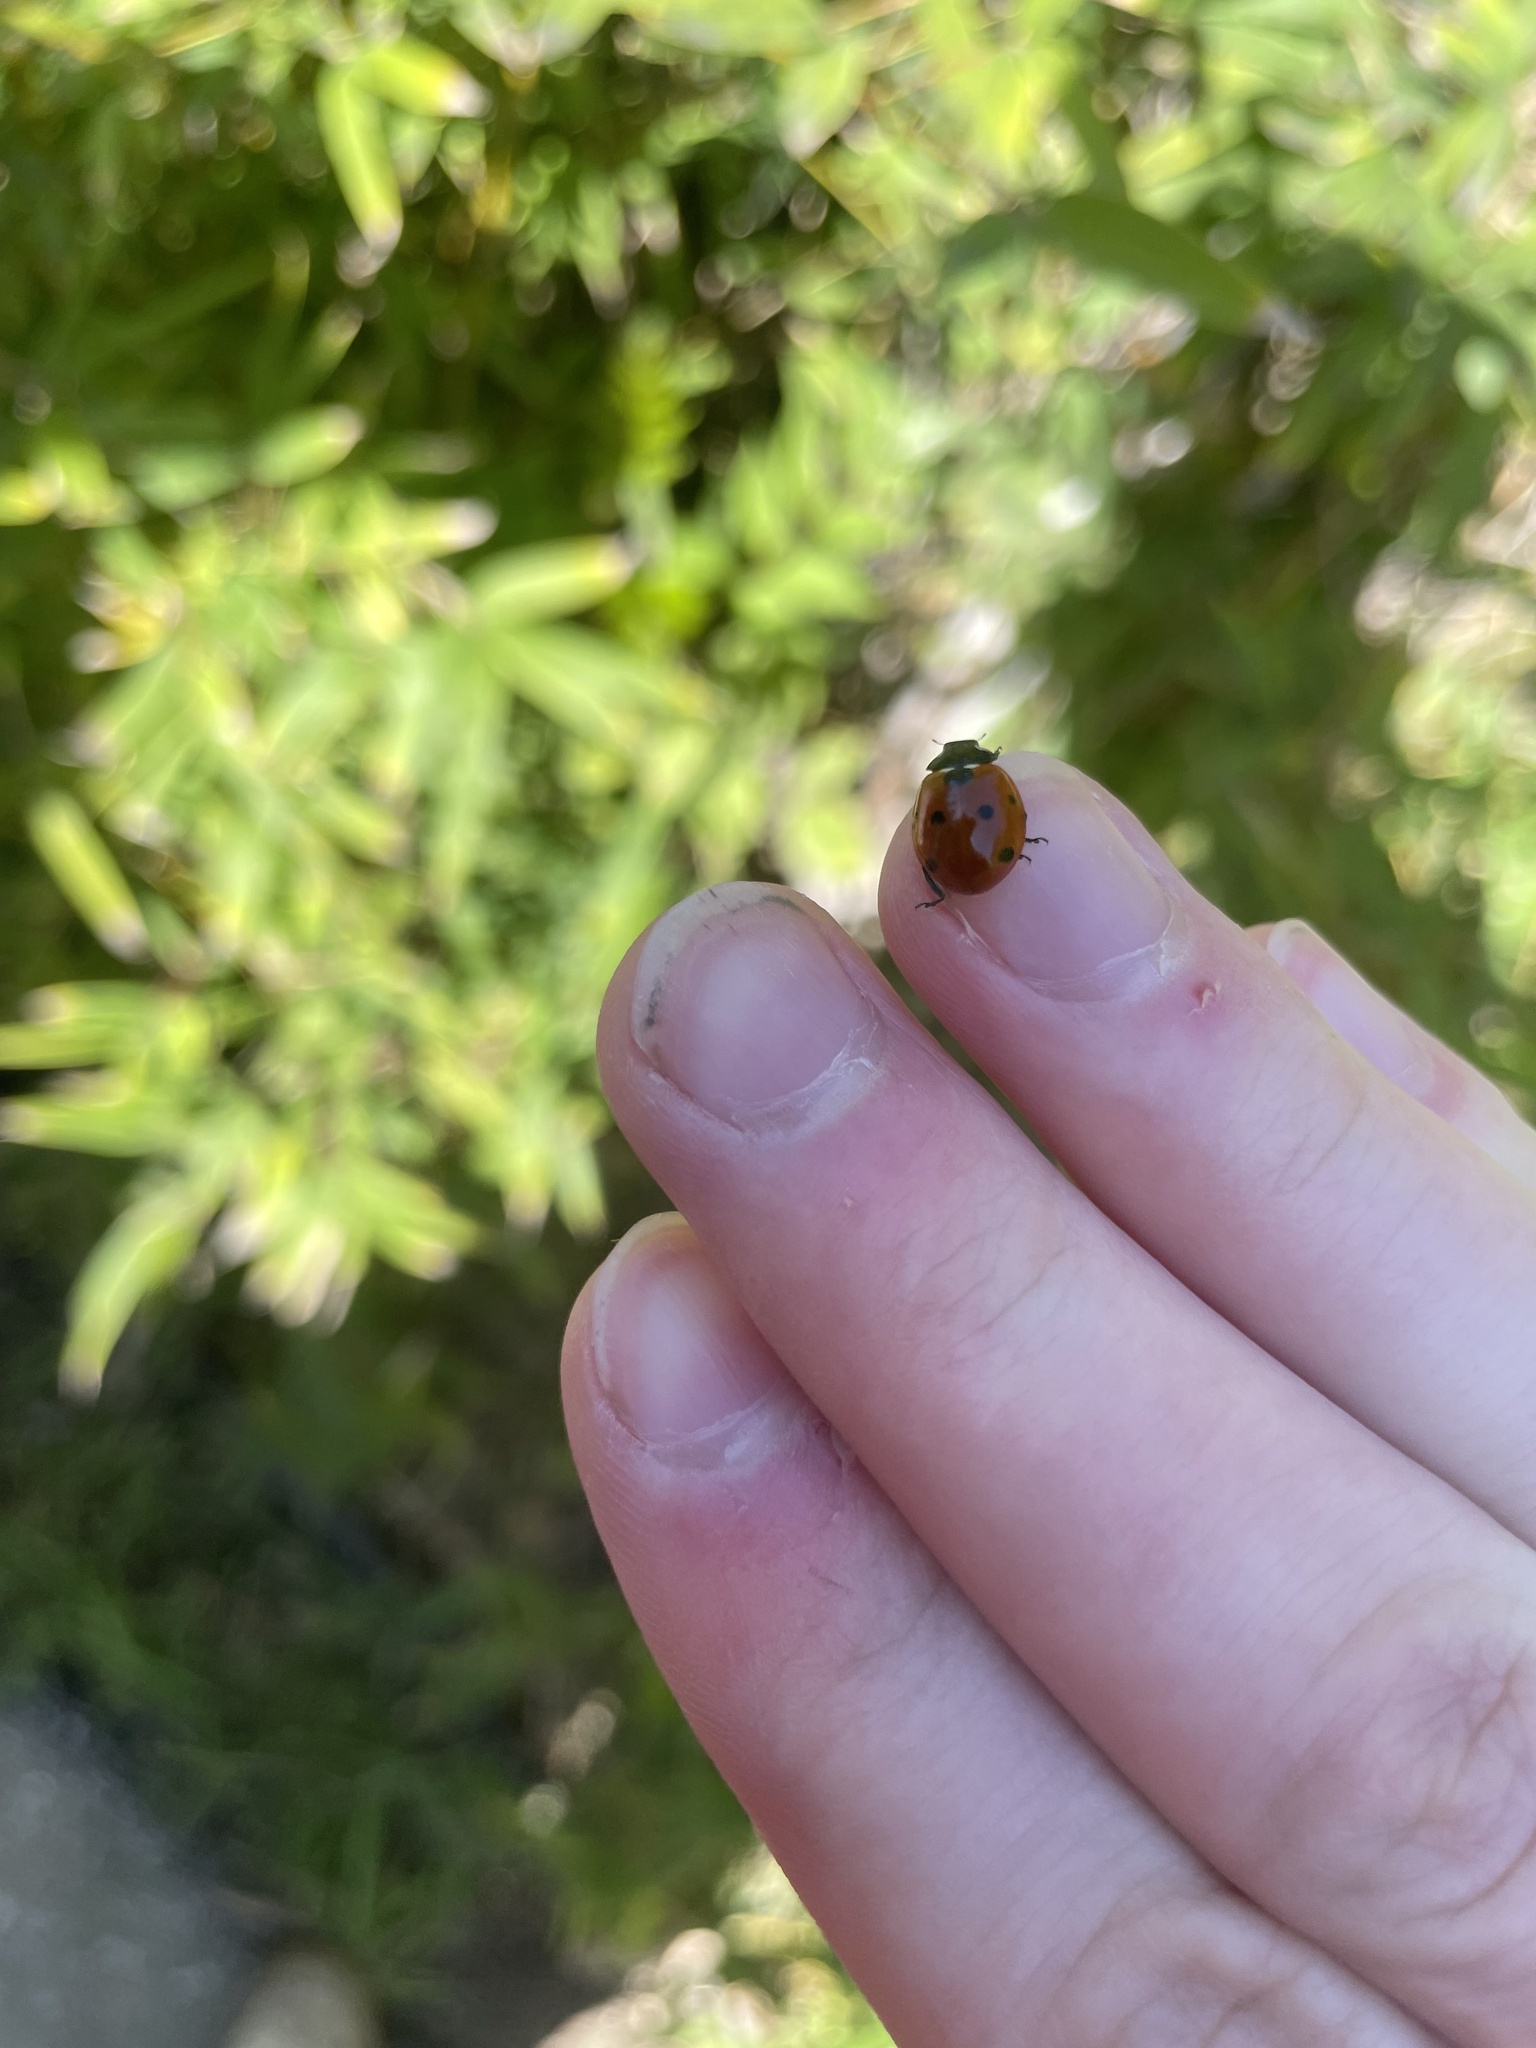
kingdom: Animalia
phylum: Arthropoda
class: Insecta
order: Coleoptera
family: Coccinellidae
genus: Coccinella
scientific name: Coccinella septempunctata
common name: Sevenspotted lady beetle
